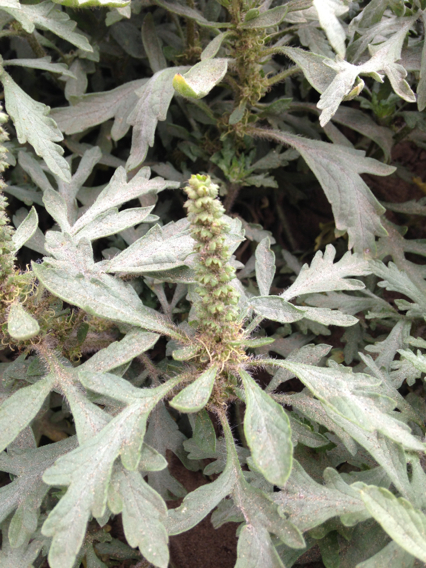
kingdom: Plantae
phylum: Tracheophyta
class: Magnoliopsida
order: Asterales
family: Asteraceae
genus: Ambrosia
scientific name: Ambrosia chamissonis
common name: Beachbur
